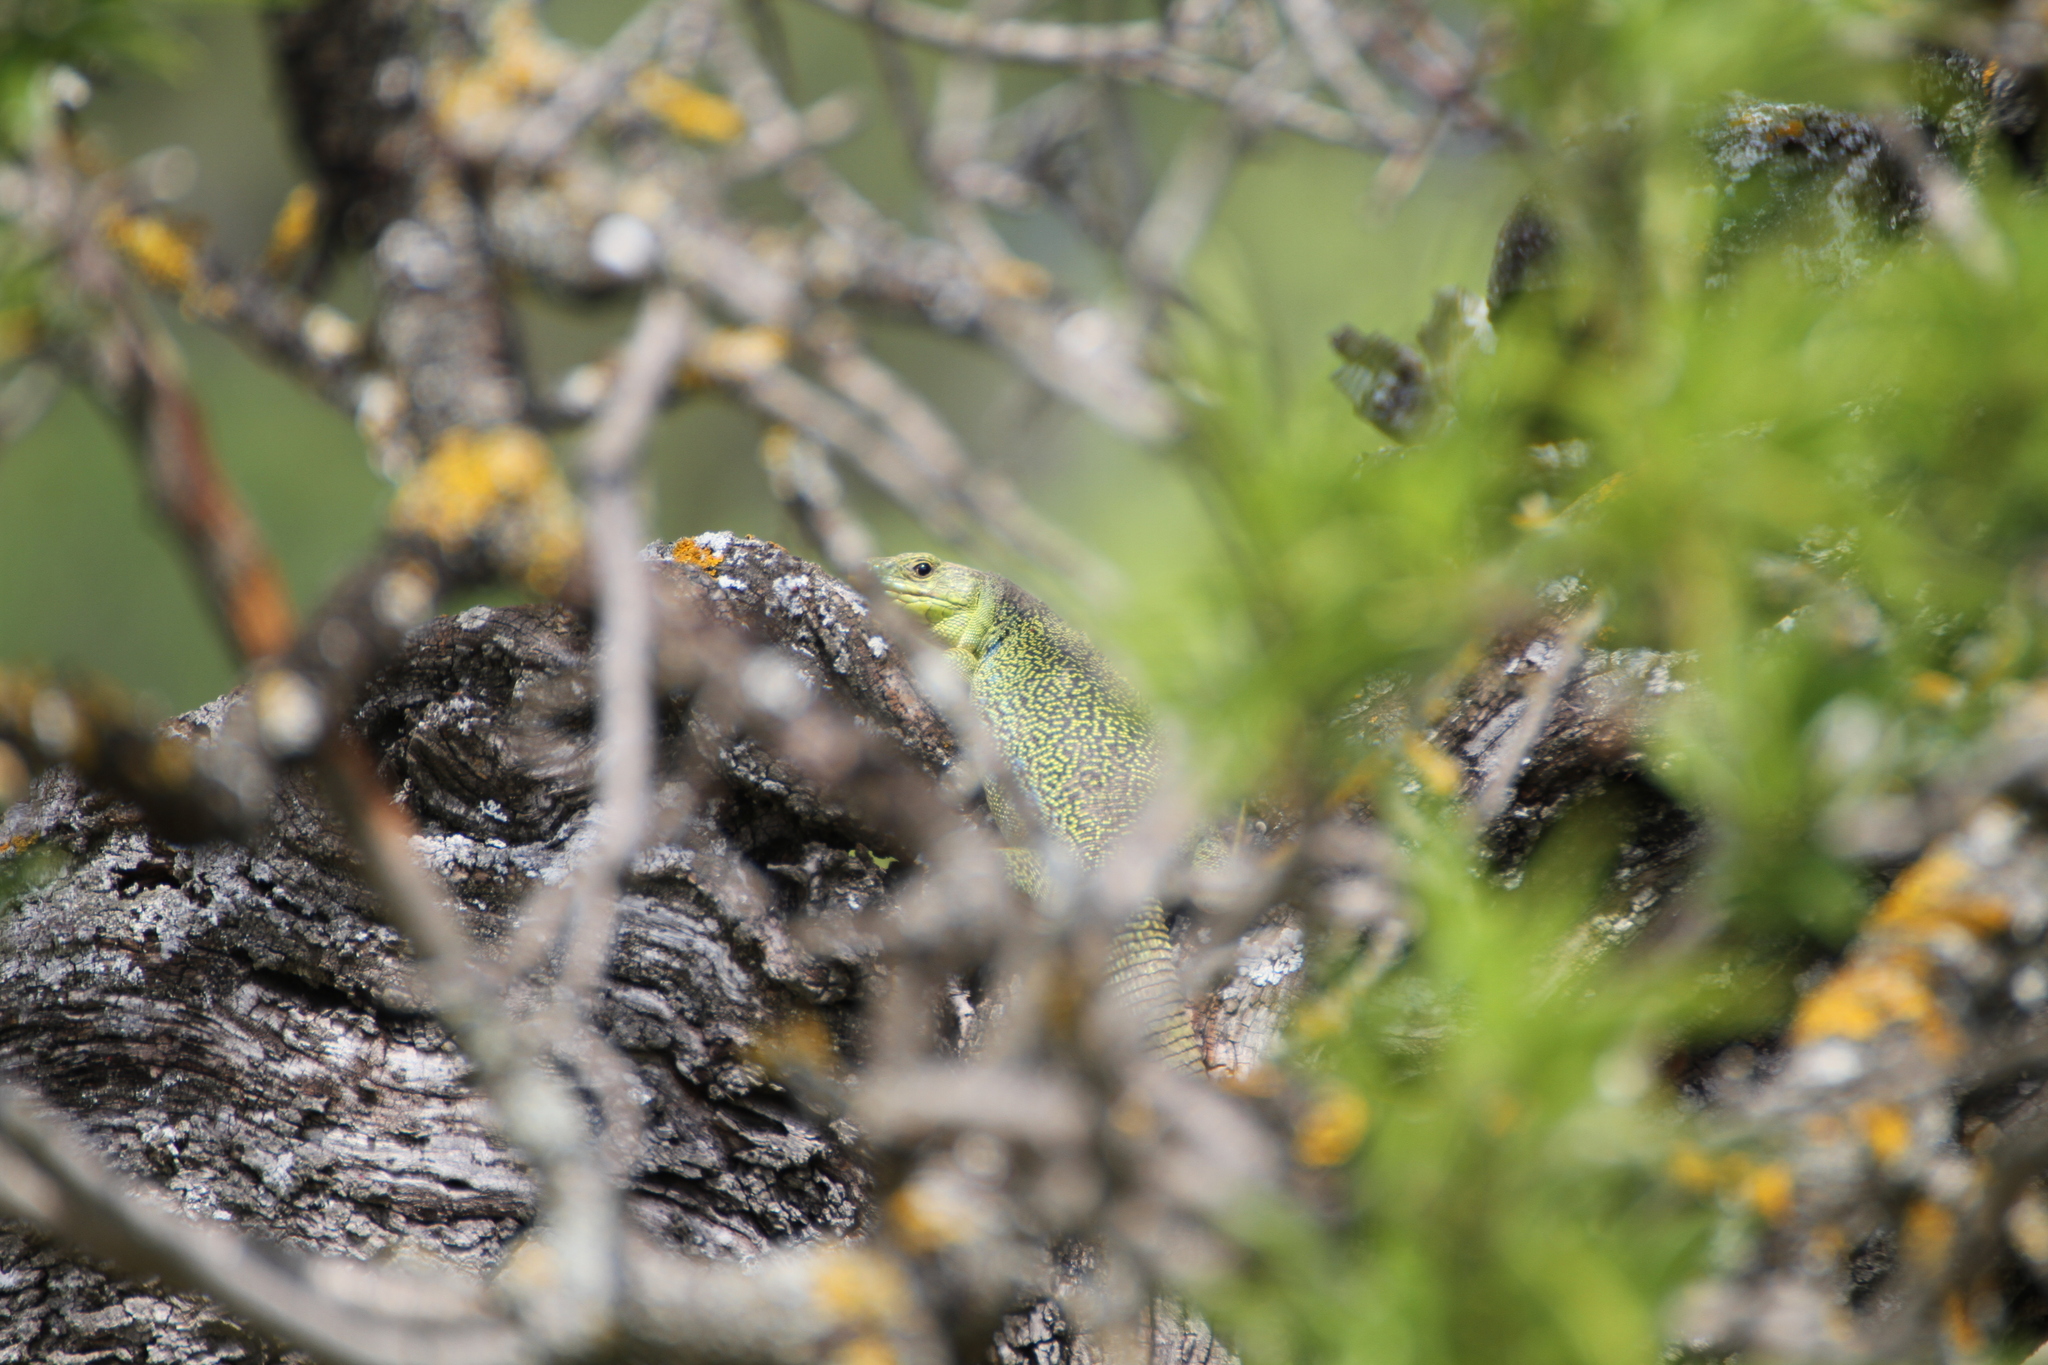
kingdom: Animalia
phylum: Chordata
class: Squamata
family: Lacertidae
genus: Timon
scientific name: Timon lepidus
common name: Ocellated lizard
